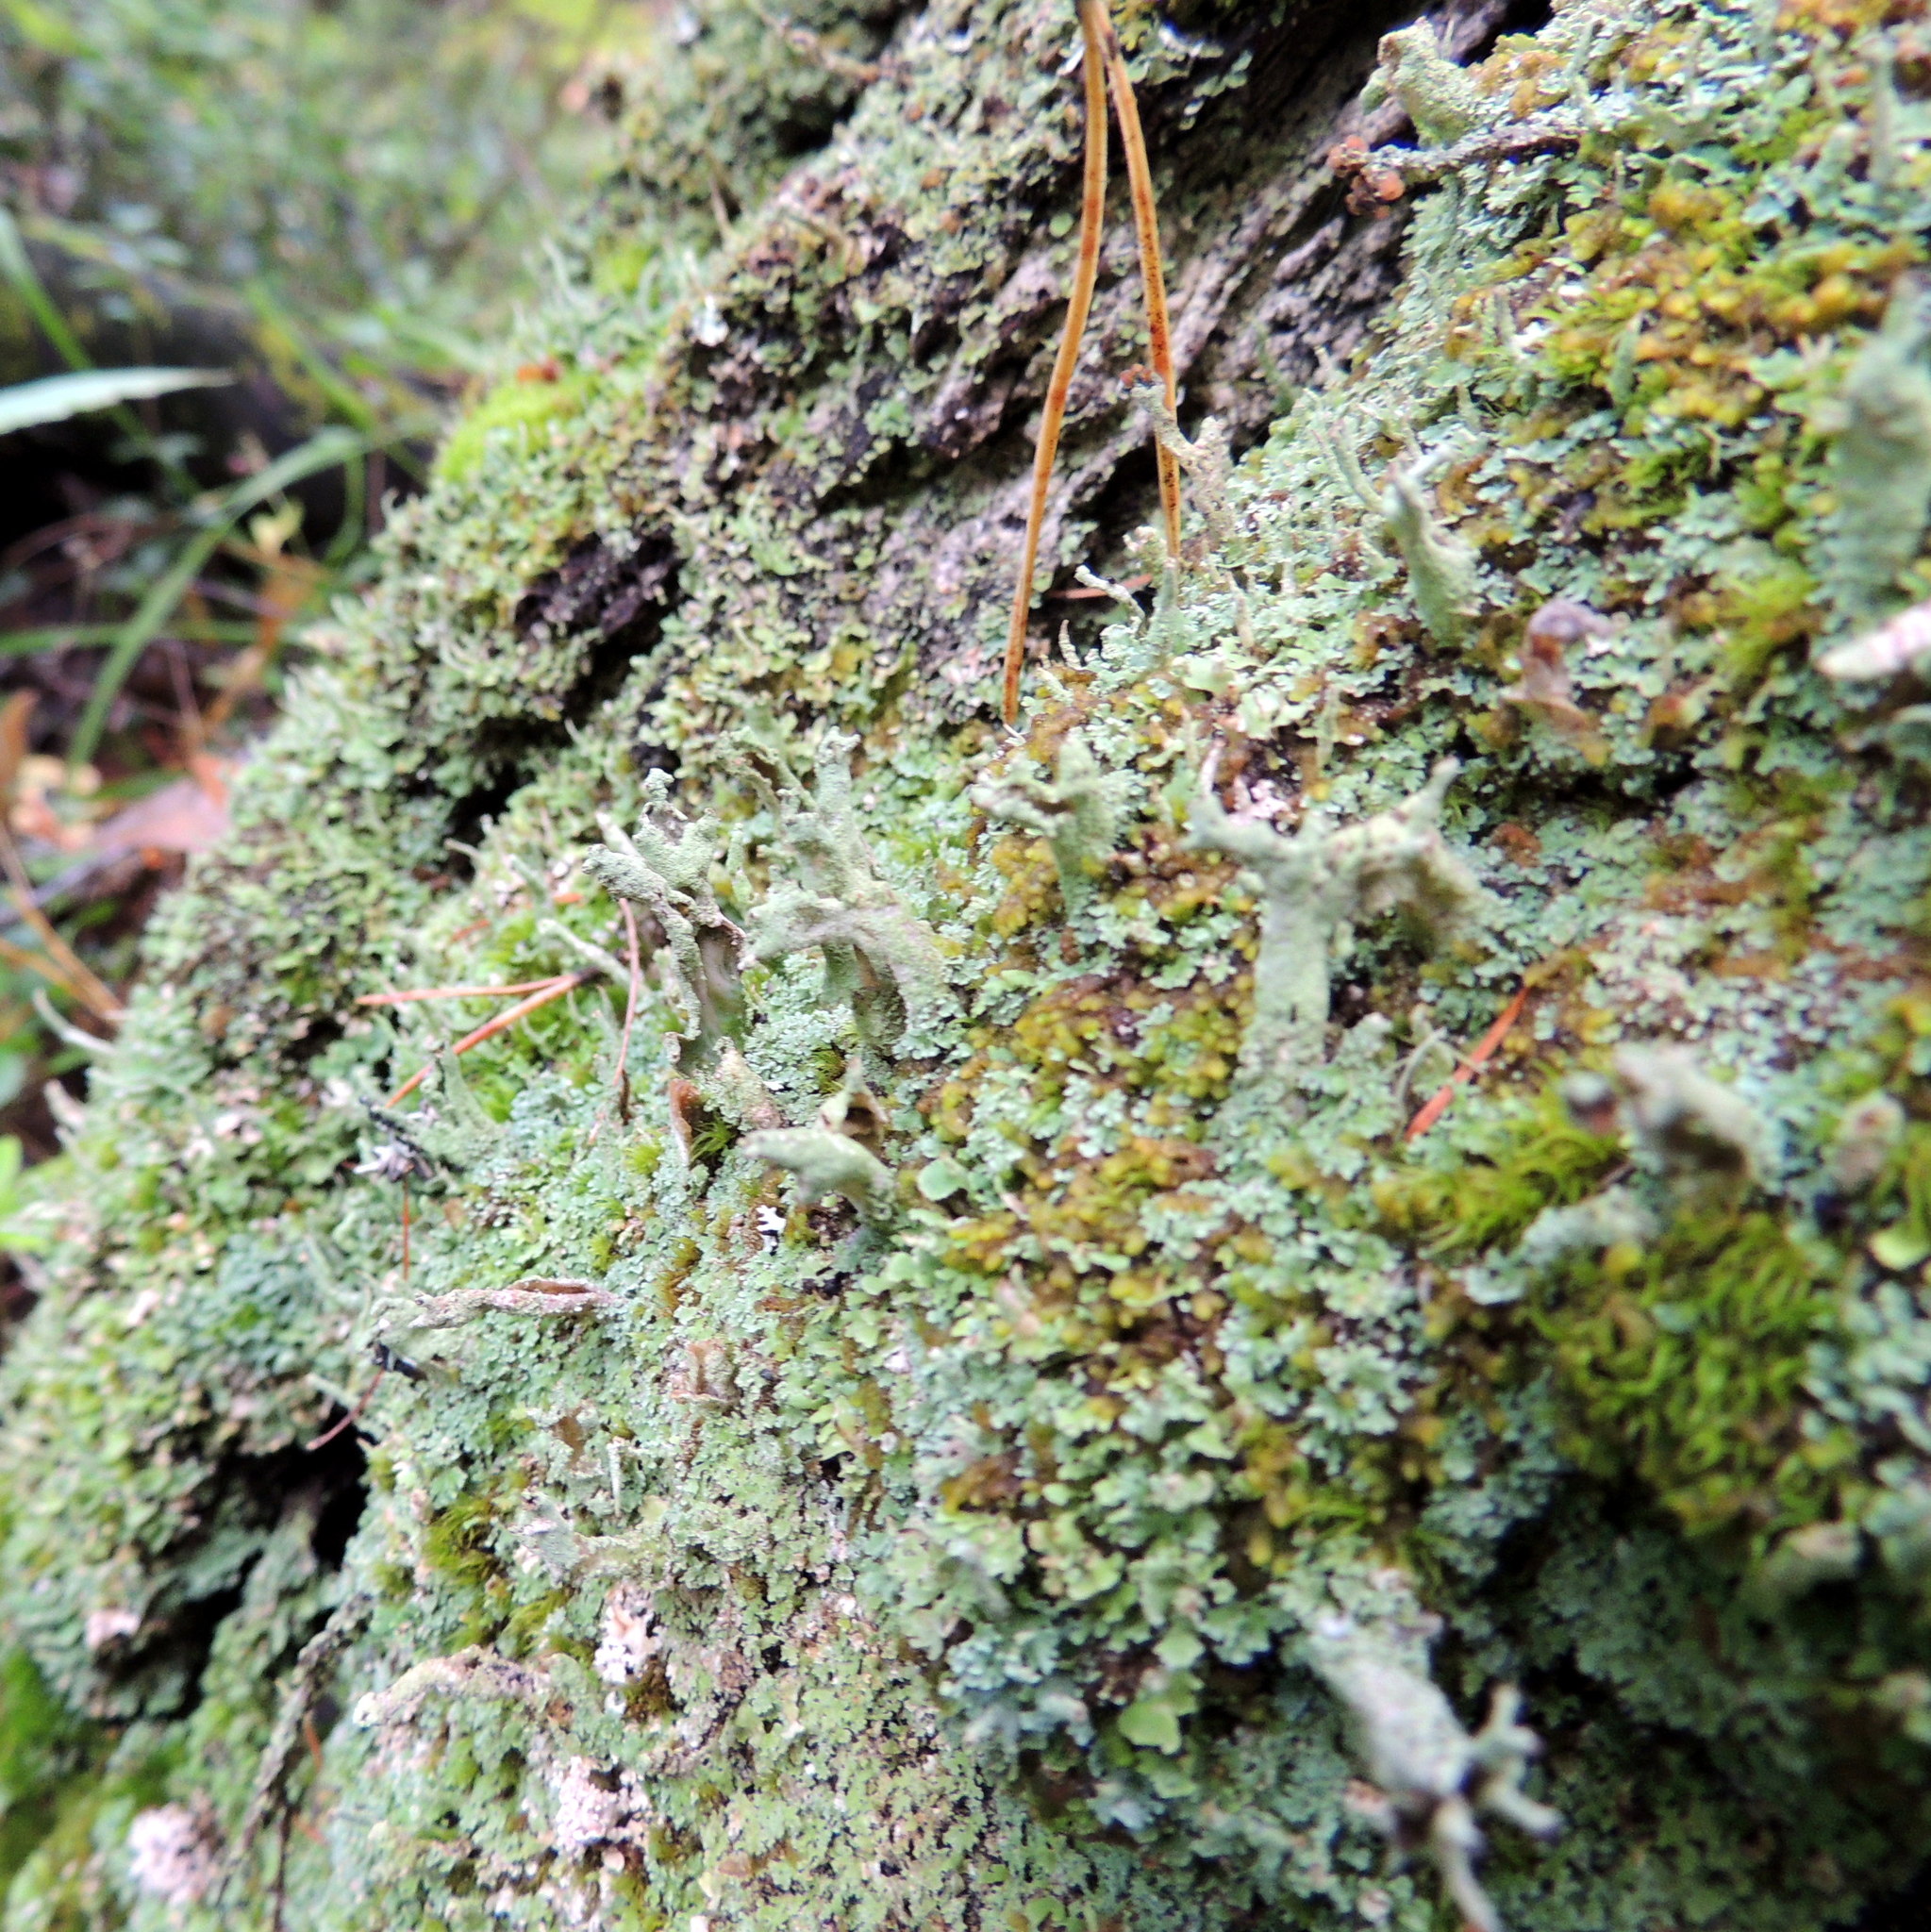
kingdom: Fungi
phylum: Ascomycota
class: Lecanoromycetes
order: Lecanorales
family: Cladoniaceae
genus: Cladonia
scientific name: Cladonia coniocraea
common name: Common powderhorn
